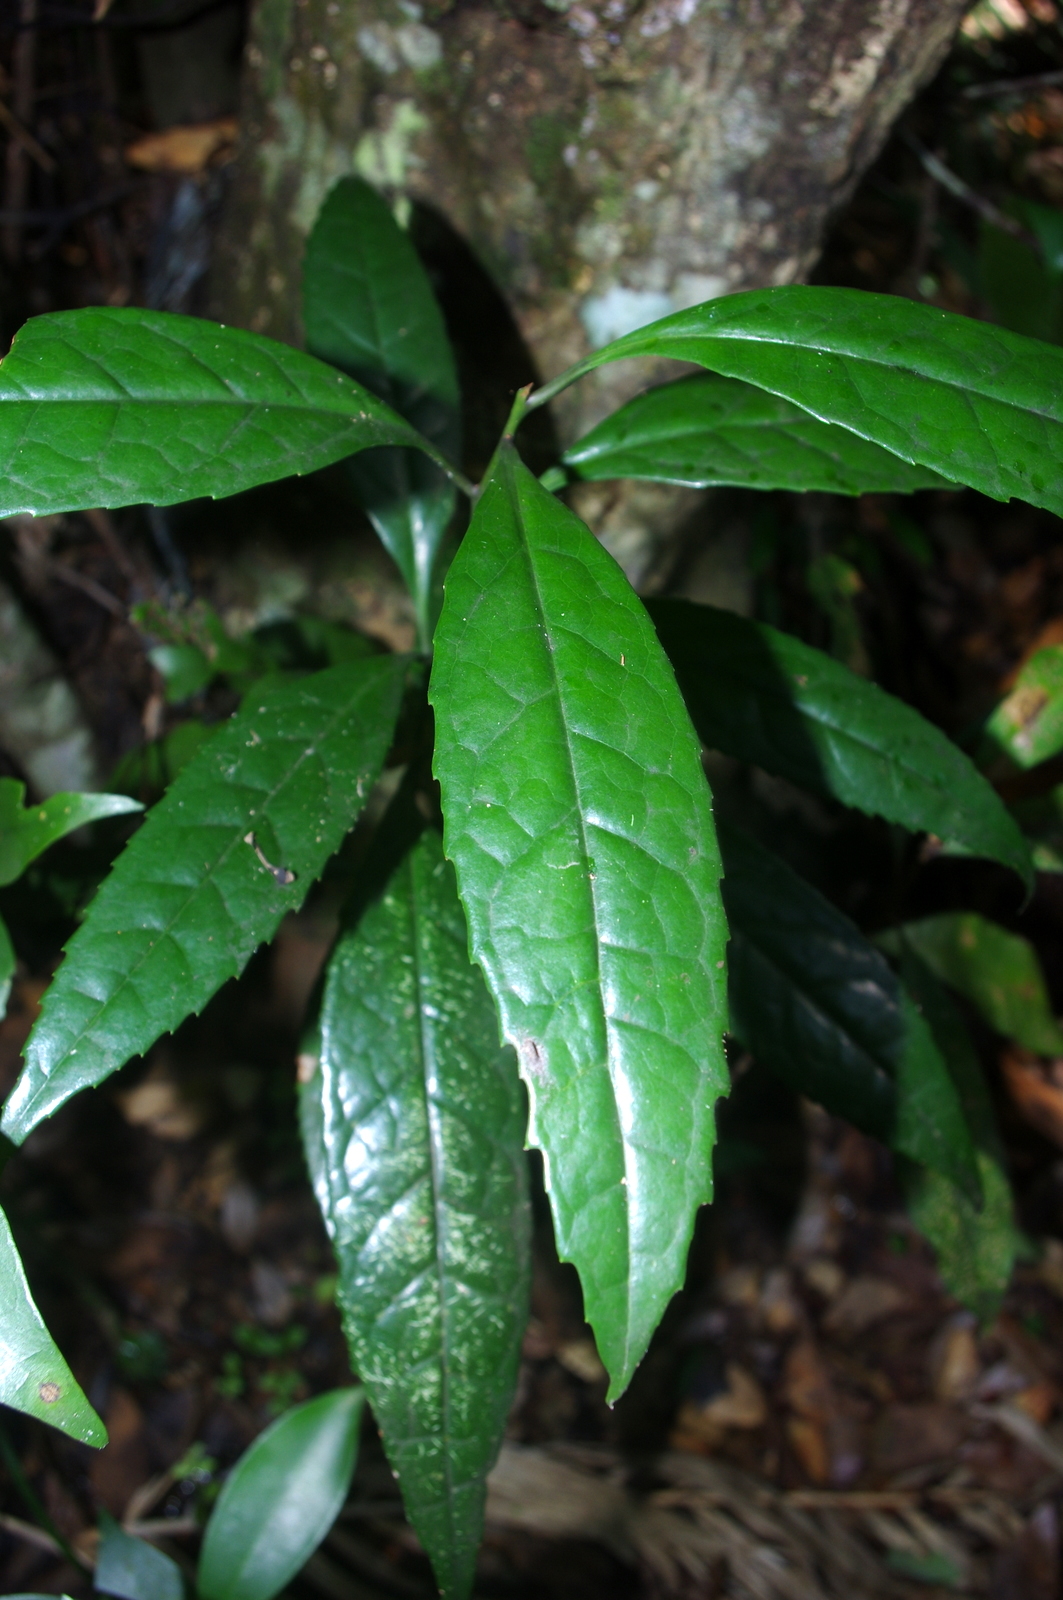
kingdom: Plantae
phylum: Tracheophyta
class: Magnoliopsida
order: Ericales
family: Symplocaceae
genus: Symplocos
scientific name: Symplocos acuminata
